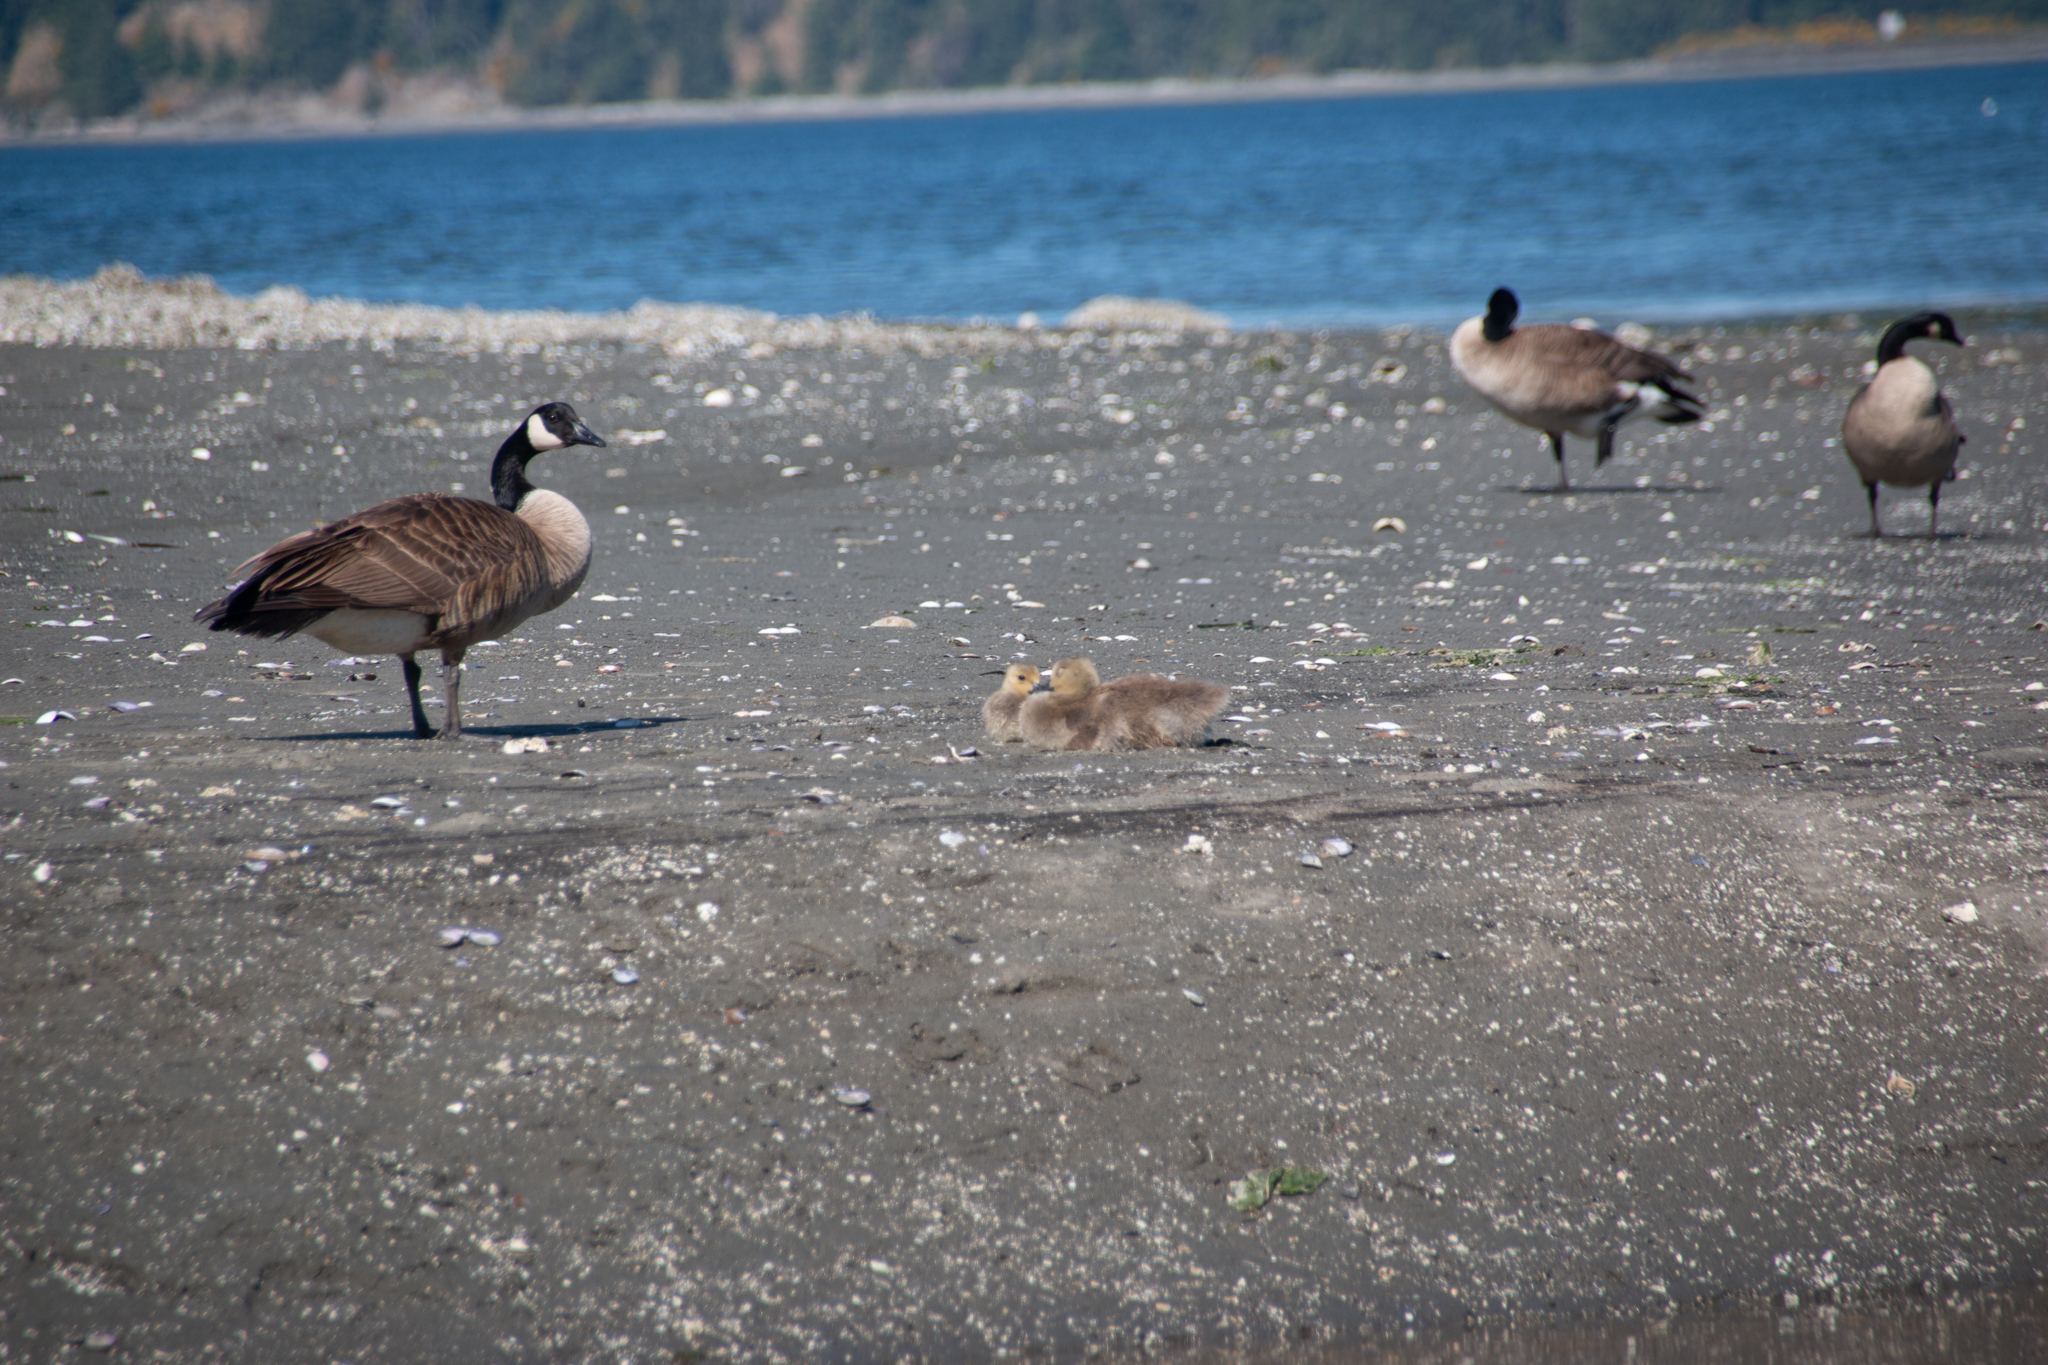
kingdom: Animalia
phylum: Chordata
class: Aves
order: Anseriformes
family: Anatidae
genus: Branta
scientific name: Branta canadensis
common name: Canada goose
